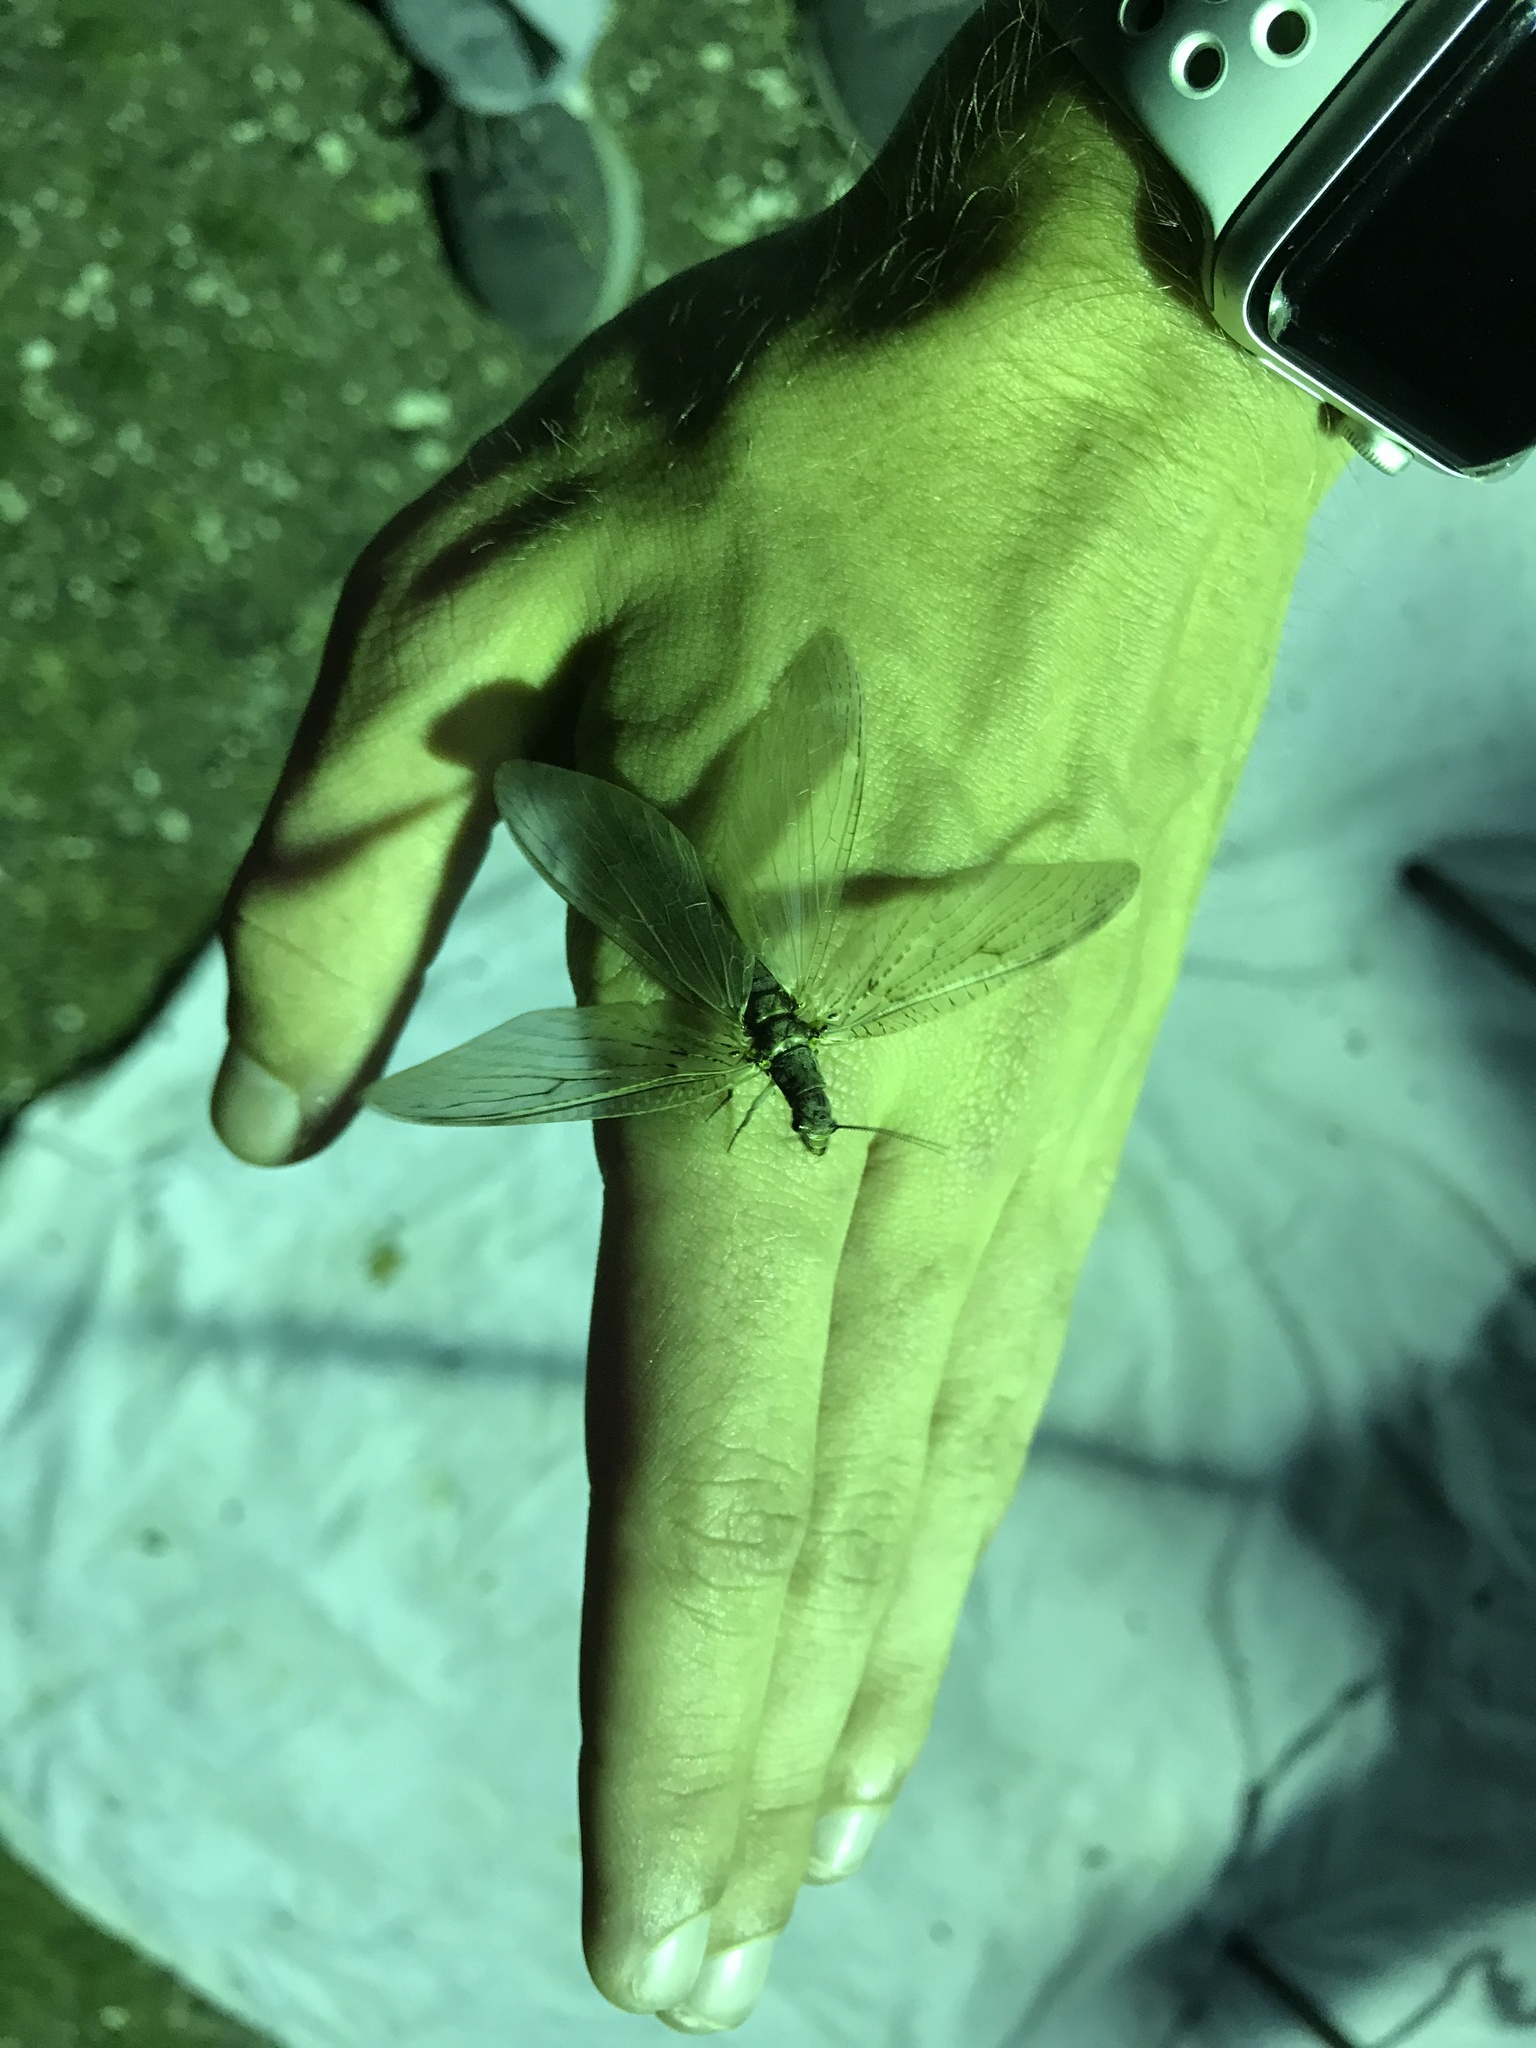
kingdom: Animalia
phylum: Arthropoda
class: Insecta
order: Megaloptera
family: Corydalidae
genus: Chauliodes
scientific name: Chauliodes rastricornis
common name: Spring fishfly
